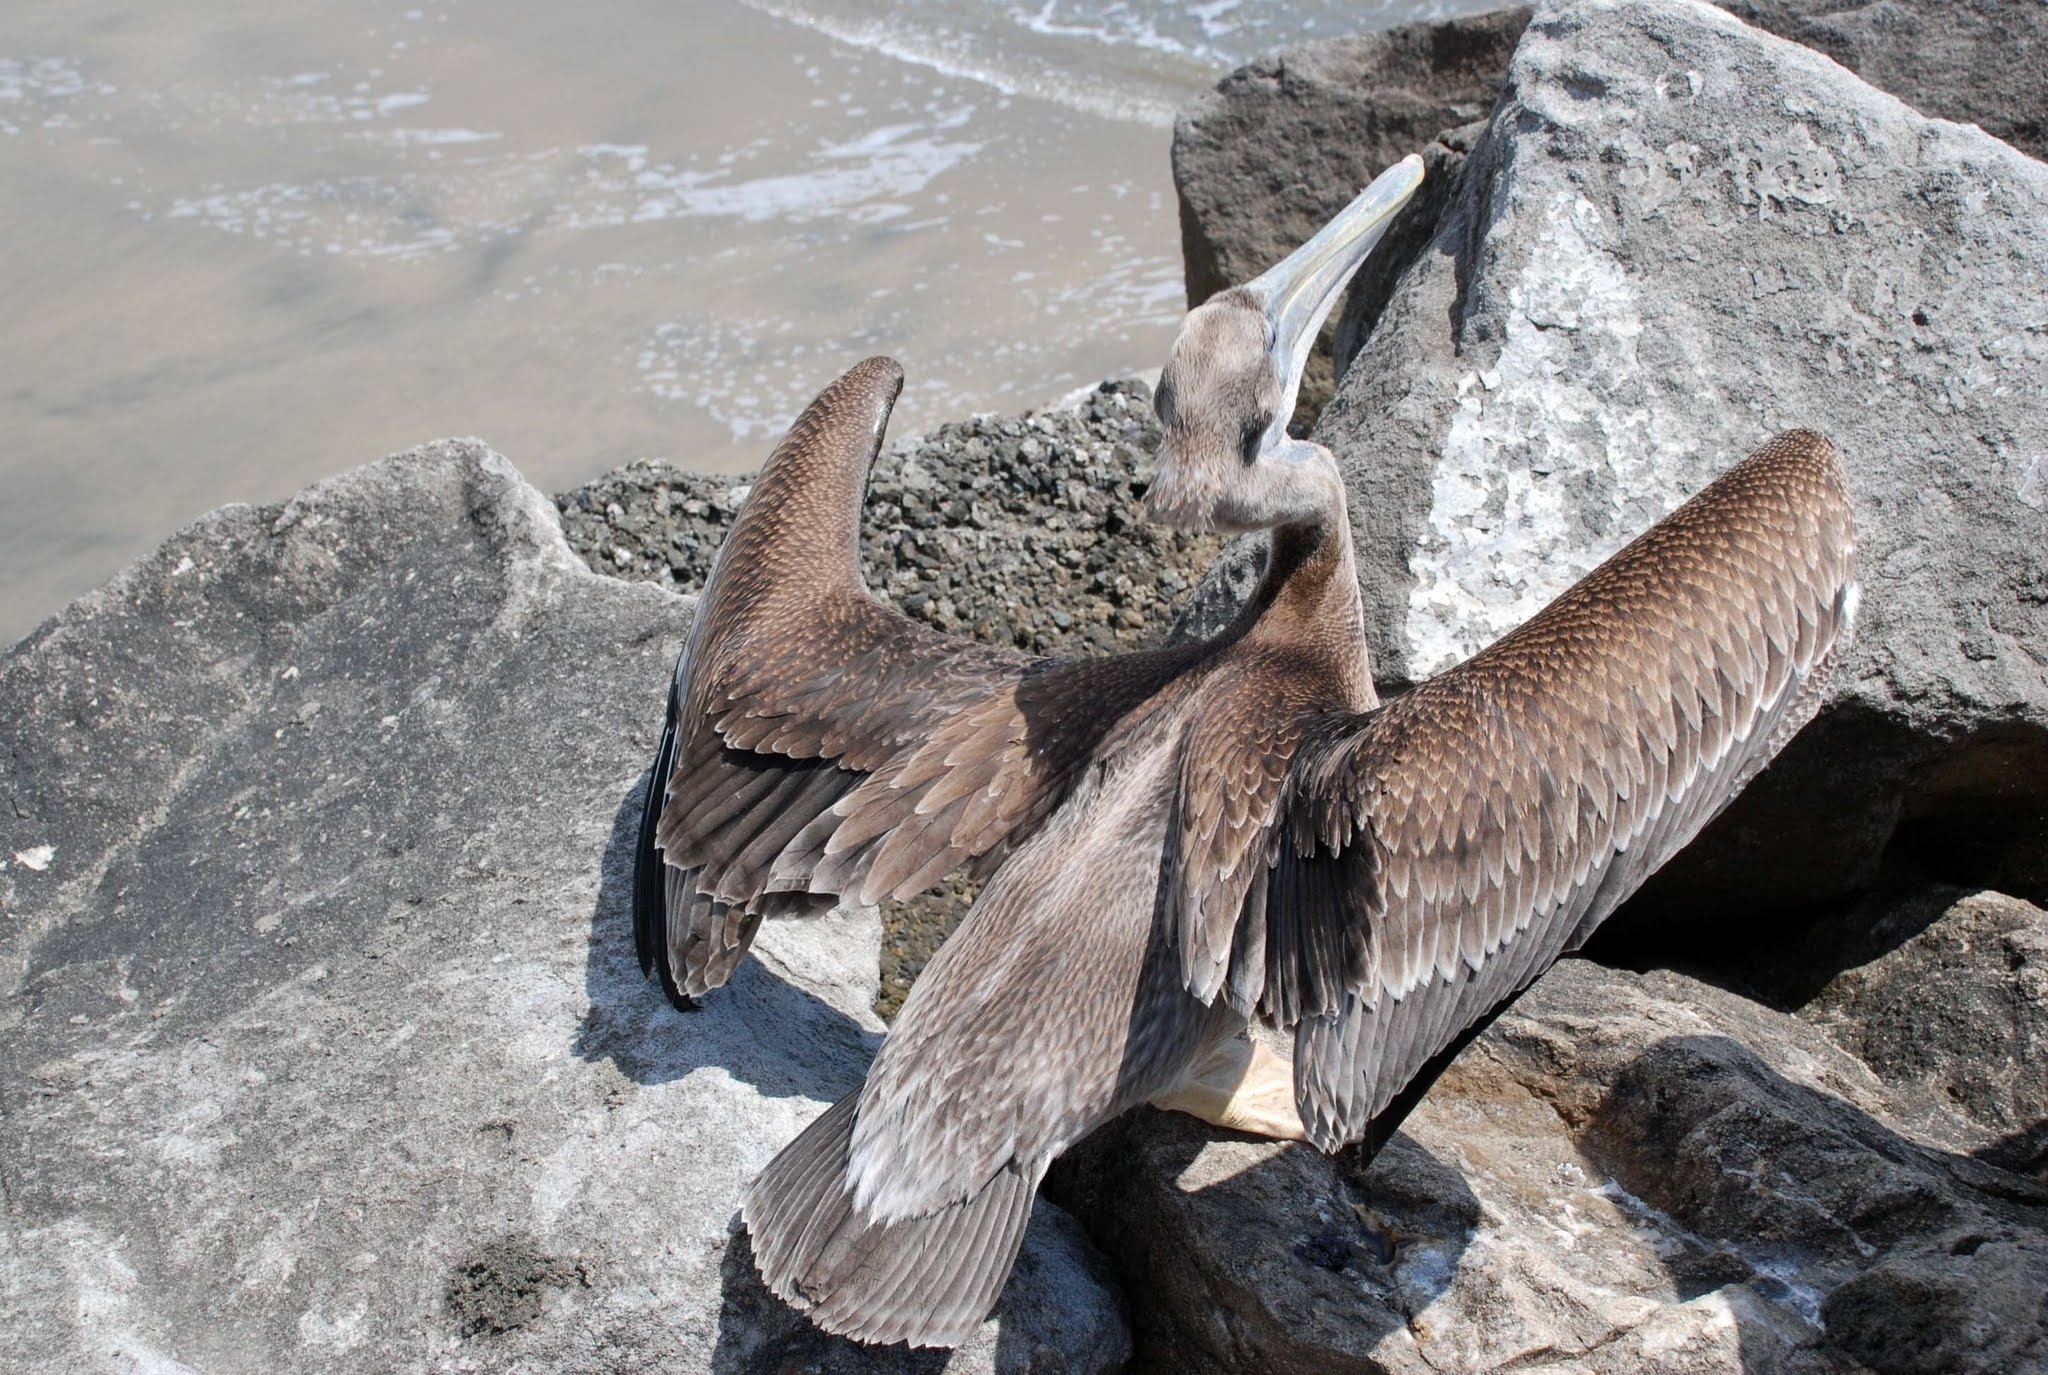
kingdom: Animalia
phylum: Chordata
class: Aves
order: Pelecaniformes
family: Pelecanidae
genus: Pelecanus
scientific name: Pelecanus occidentalis
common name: Brown pelican
